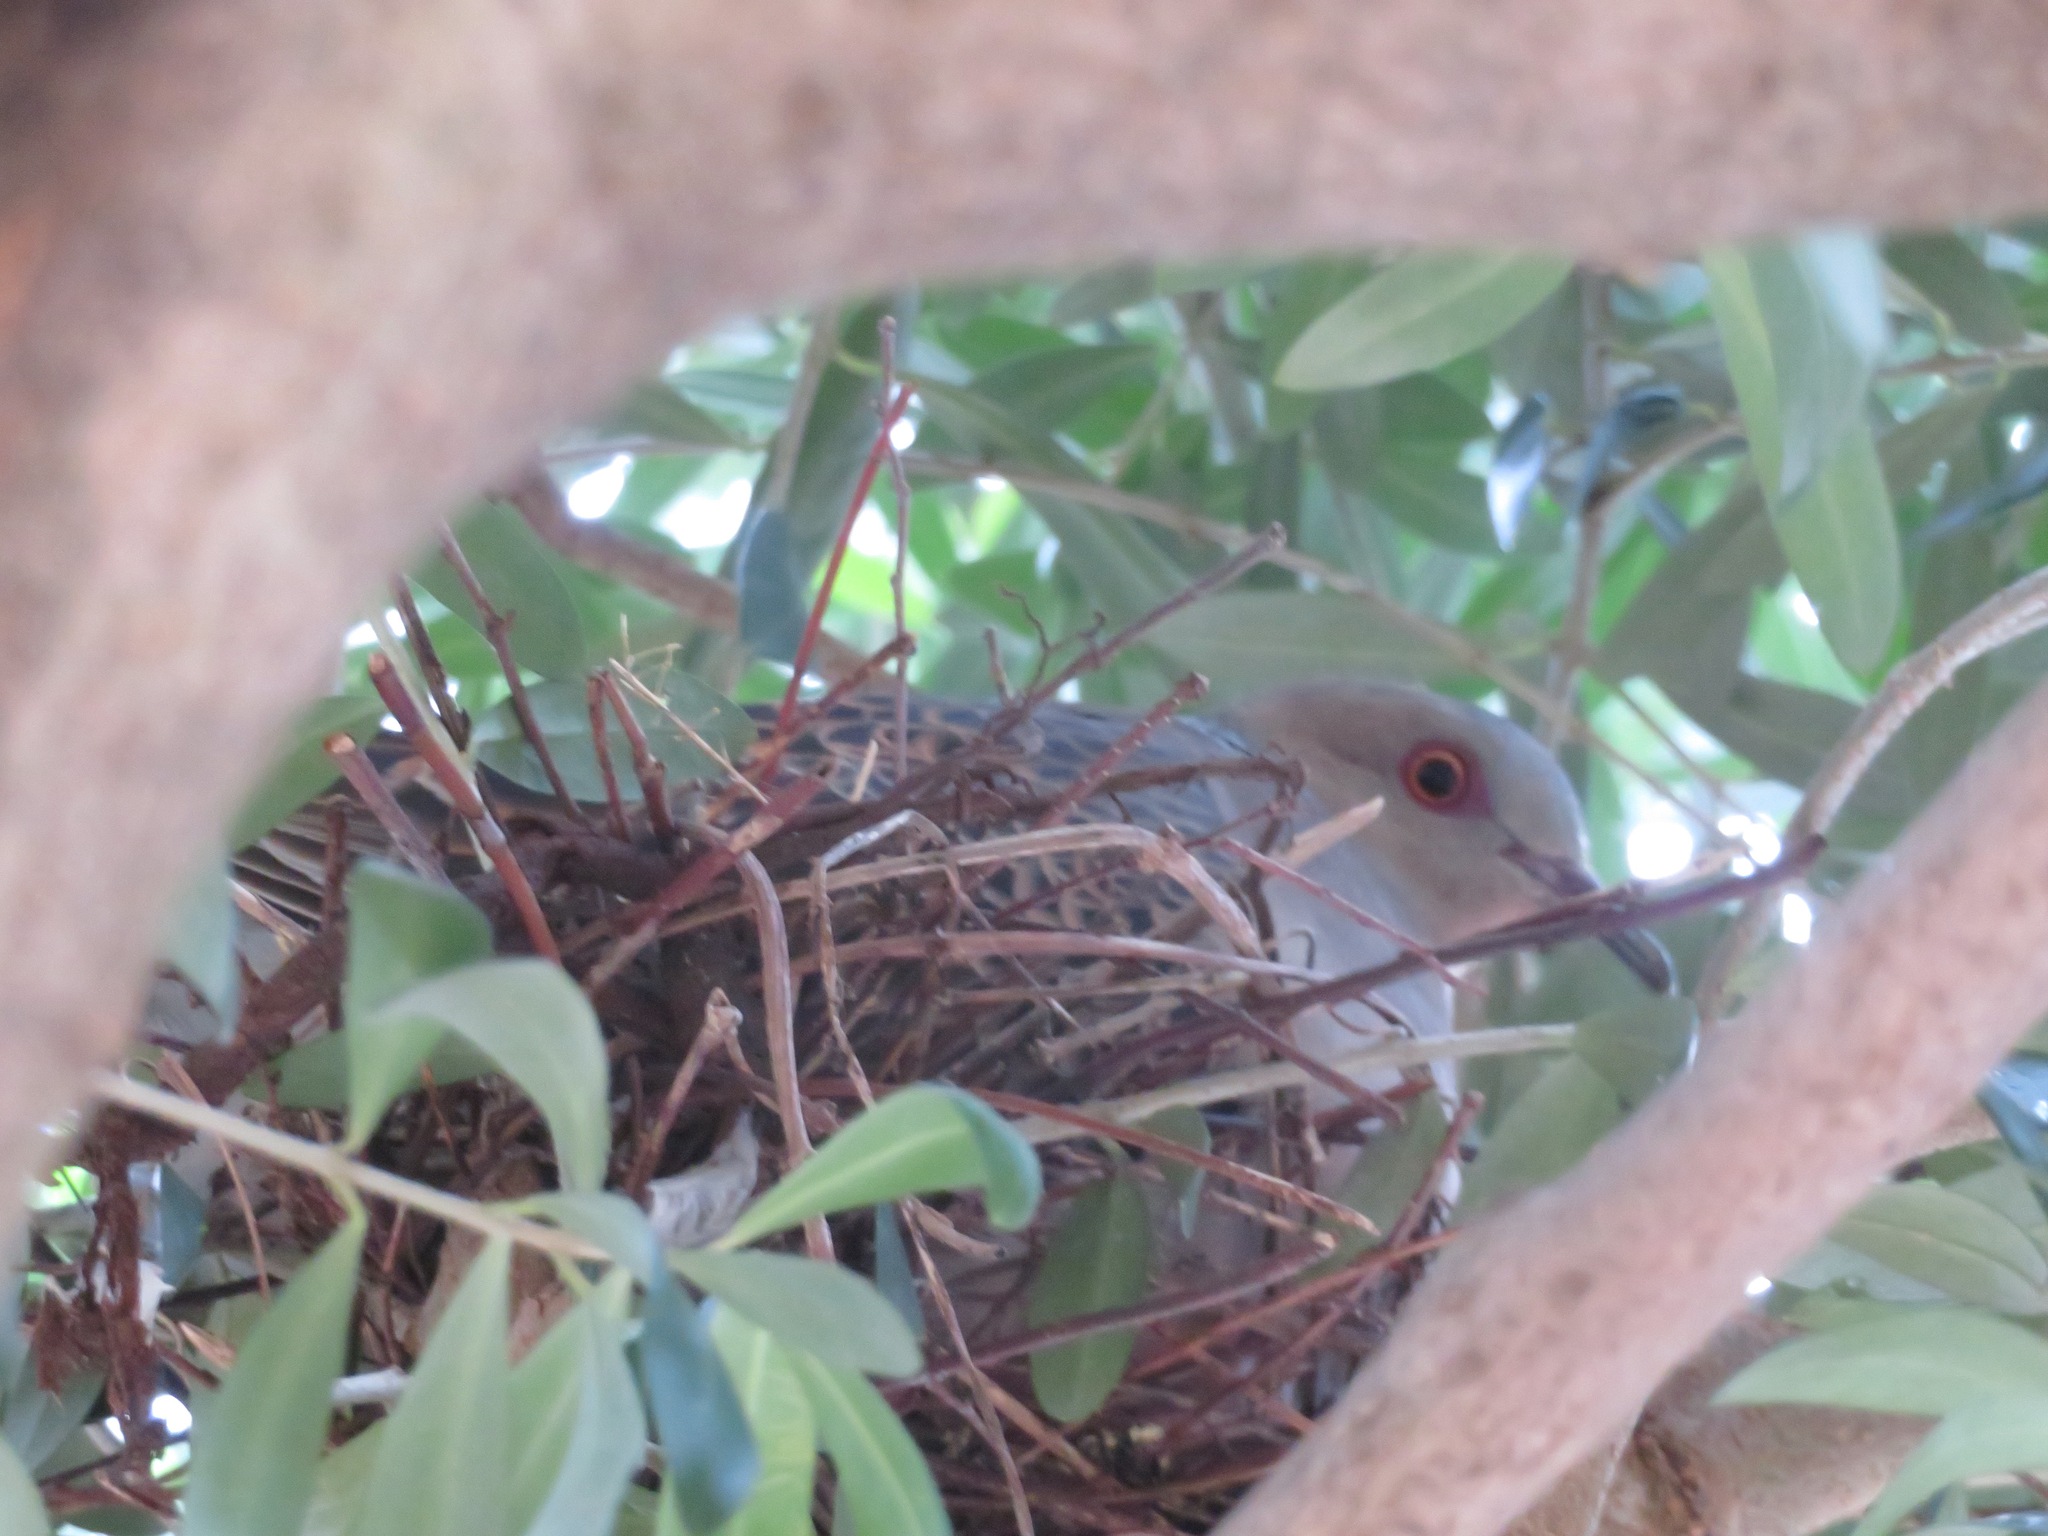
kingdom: Animalia
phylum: Chordata
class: Aves
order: Columbiformes
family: Columbidae
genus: Streptopelia
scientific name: Streptopelia orientalis
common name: Oriental turtle dove
